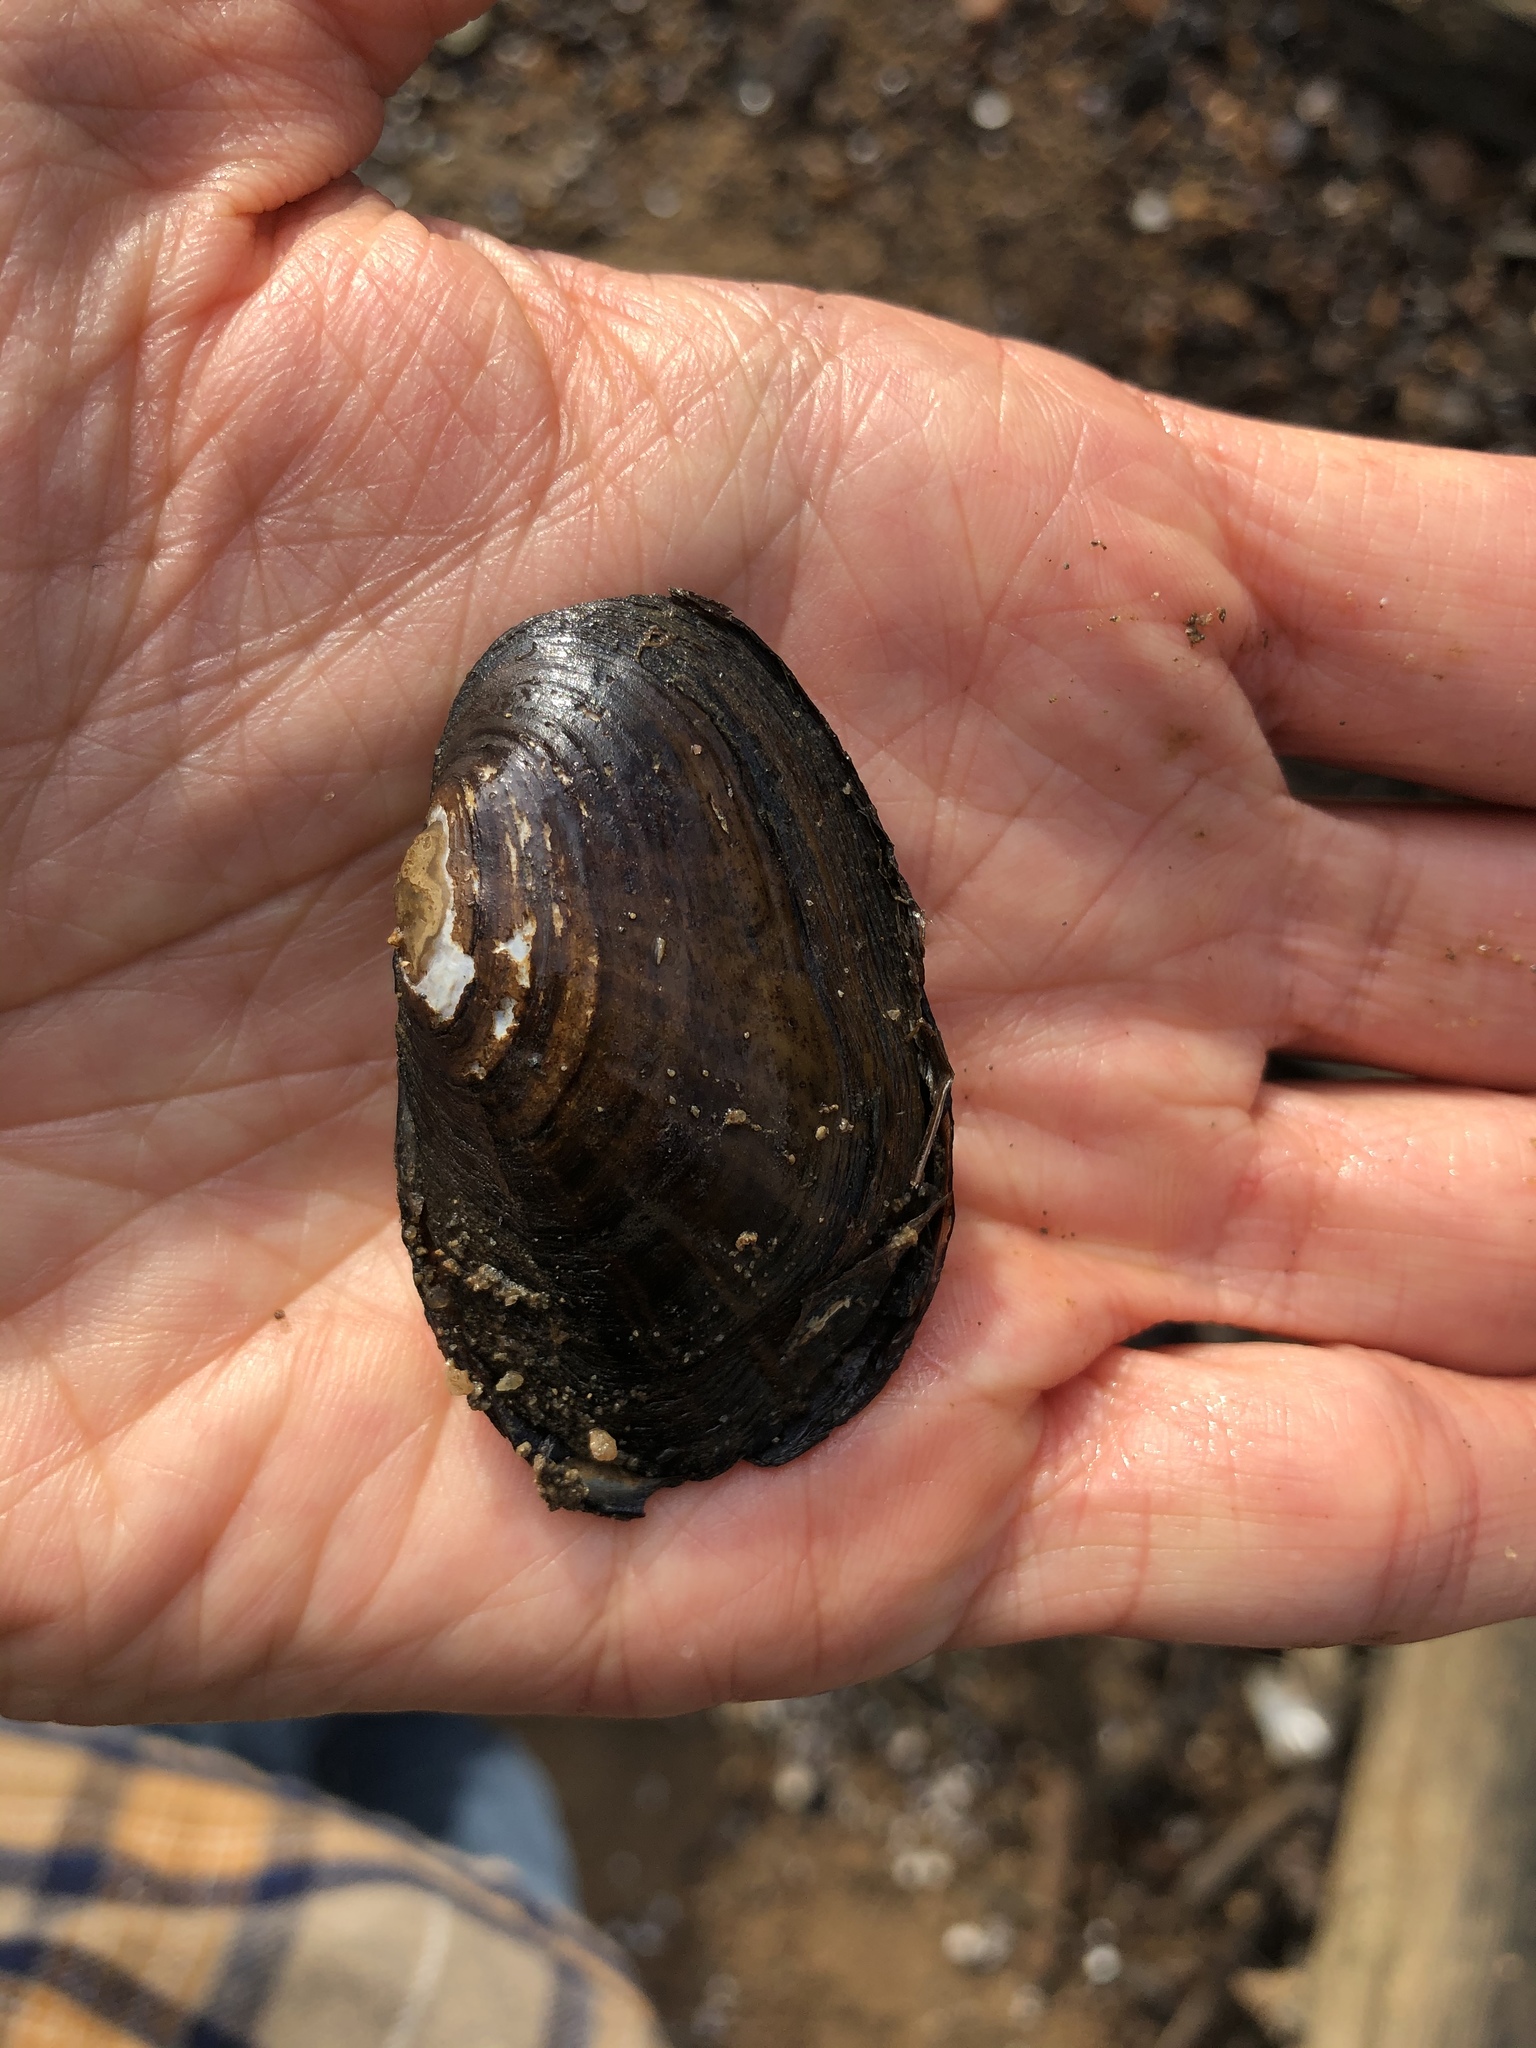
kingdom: Animalia
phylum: Mollusca
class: Bivalvia
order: Unionida
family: Unionidae
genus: Villosa
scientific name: Villosa delumbis
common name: Eastern creekshell
